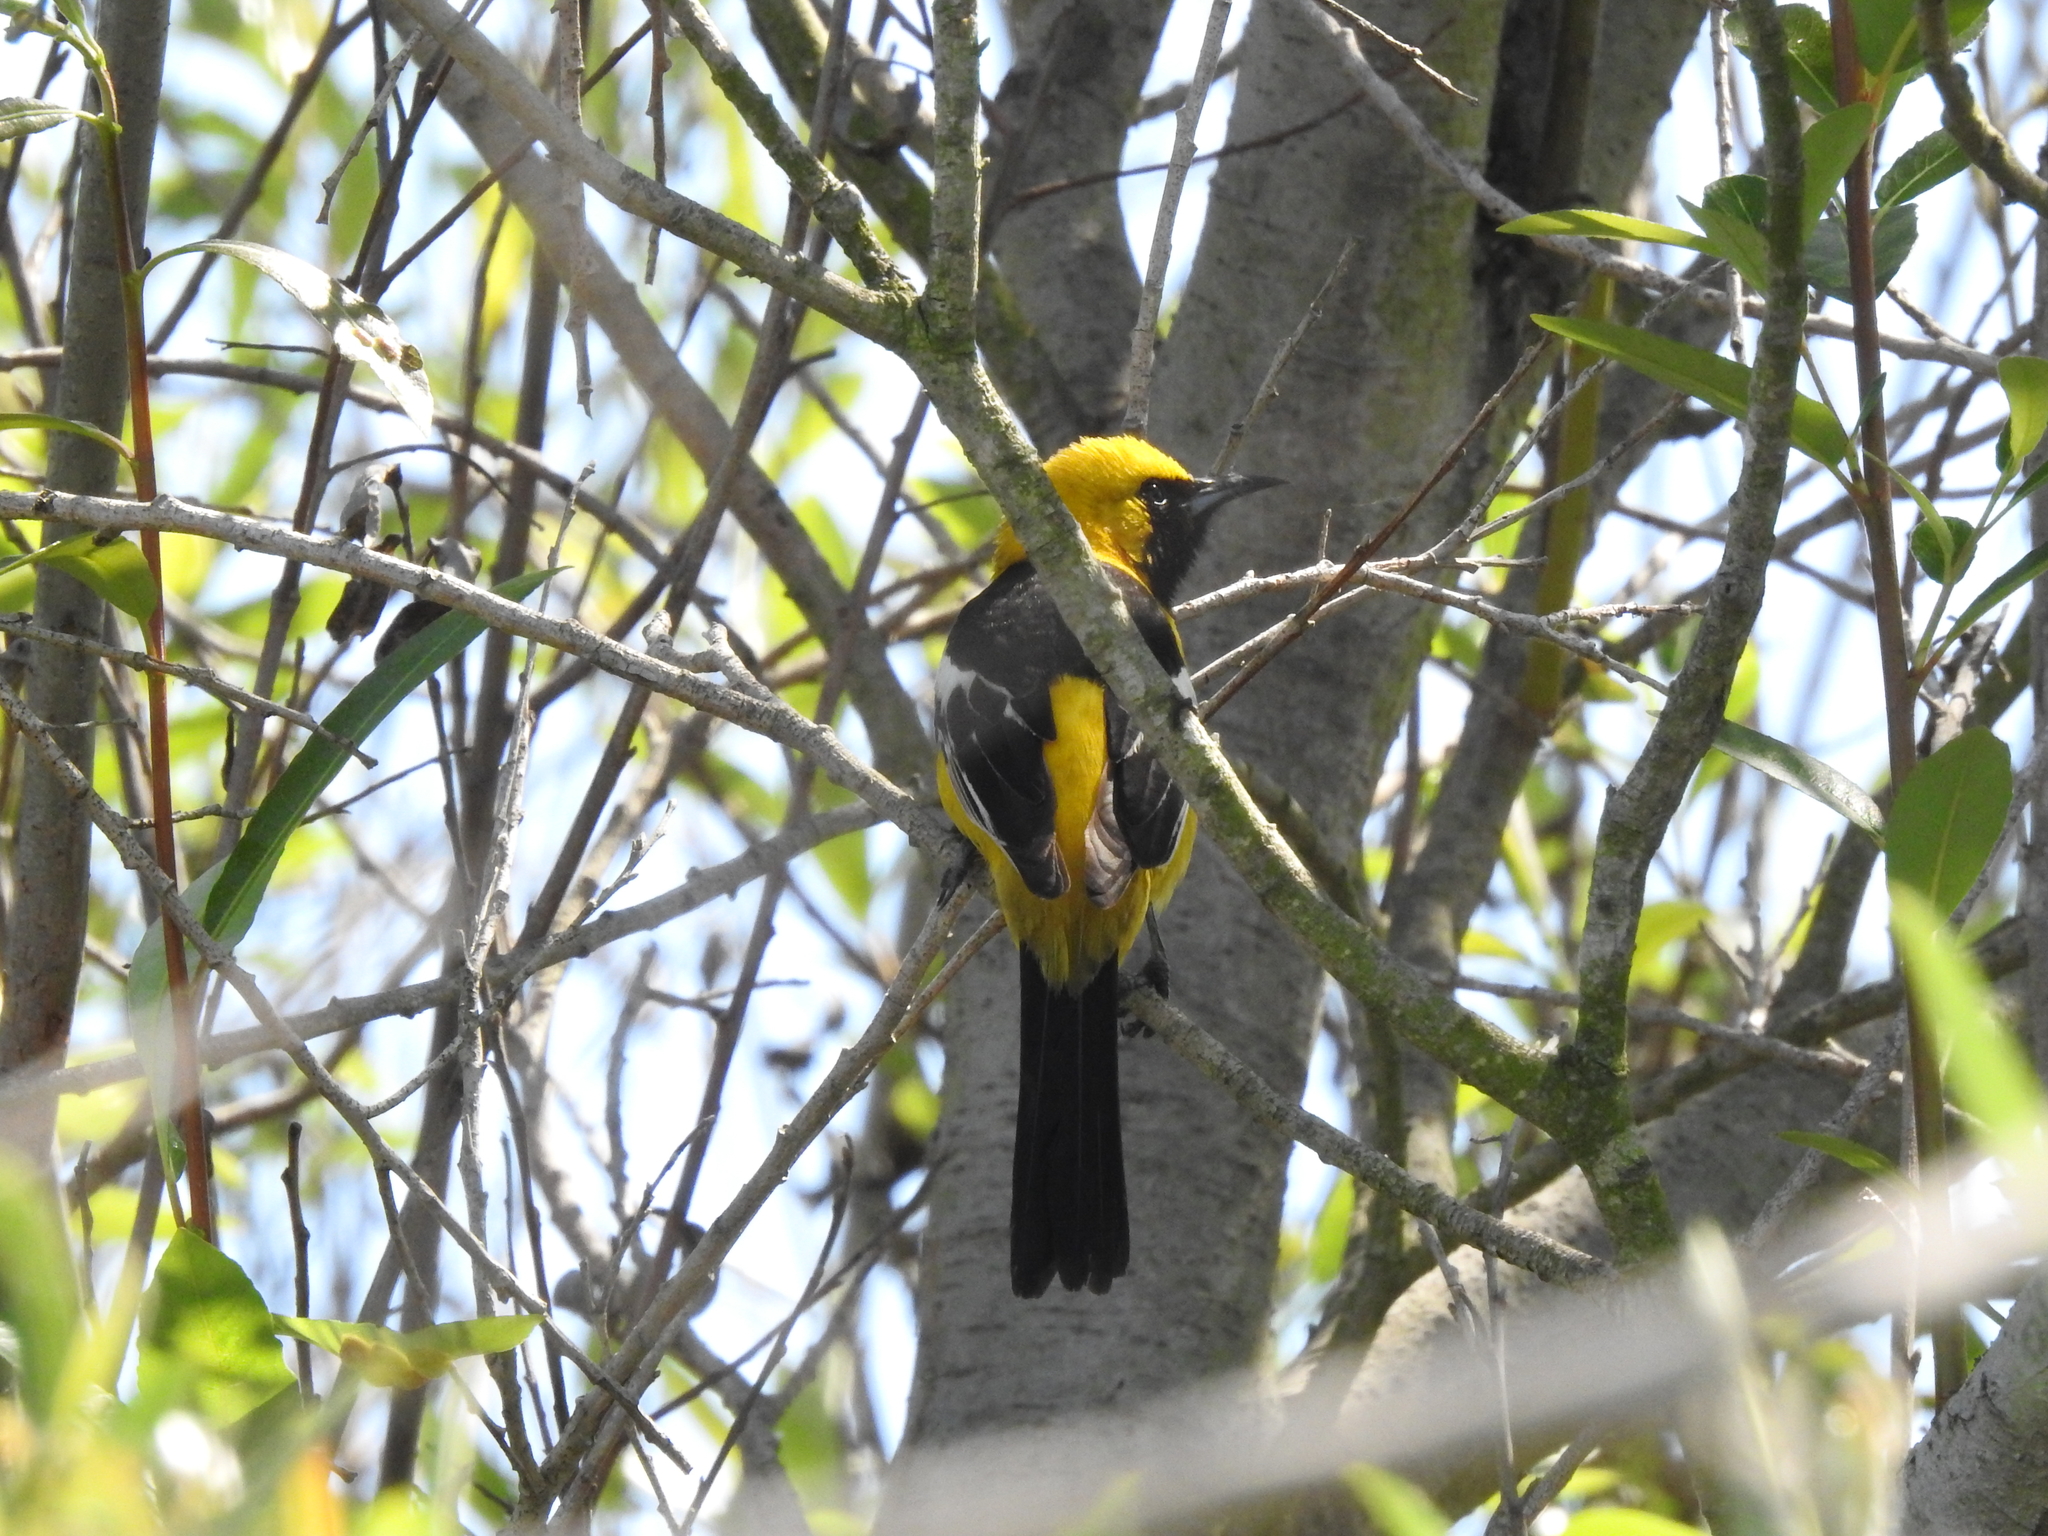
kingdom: Animalia
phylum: Chordata
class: Aves
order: Passeriformes
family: Icteridae
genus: Icterus
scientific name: Icterus cucullatus
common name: Hooded oriole
